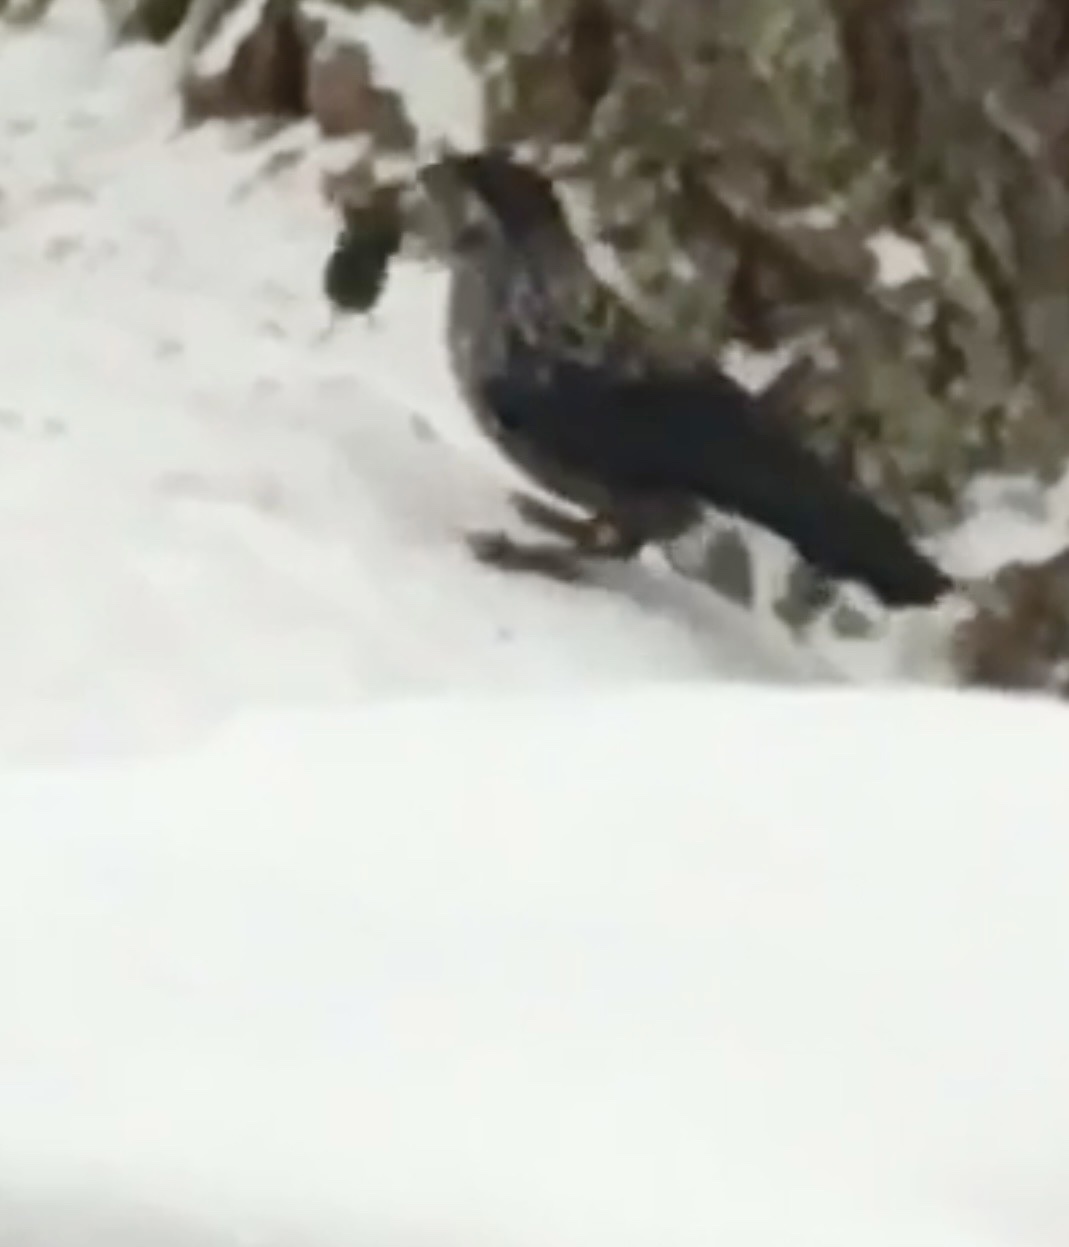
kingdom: Animalia
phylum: Chordata
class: Aves
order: Passeriformes
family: Corvidae
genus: Nucifraga
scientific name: Nucifraga caryocatactes
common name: Spotted nutcracker
